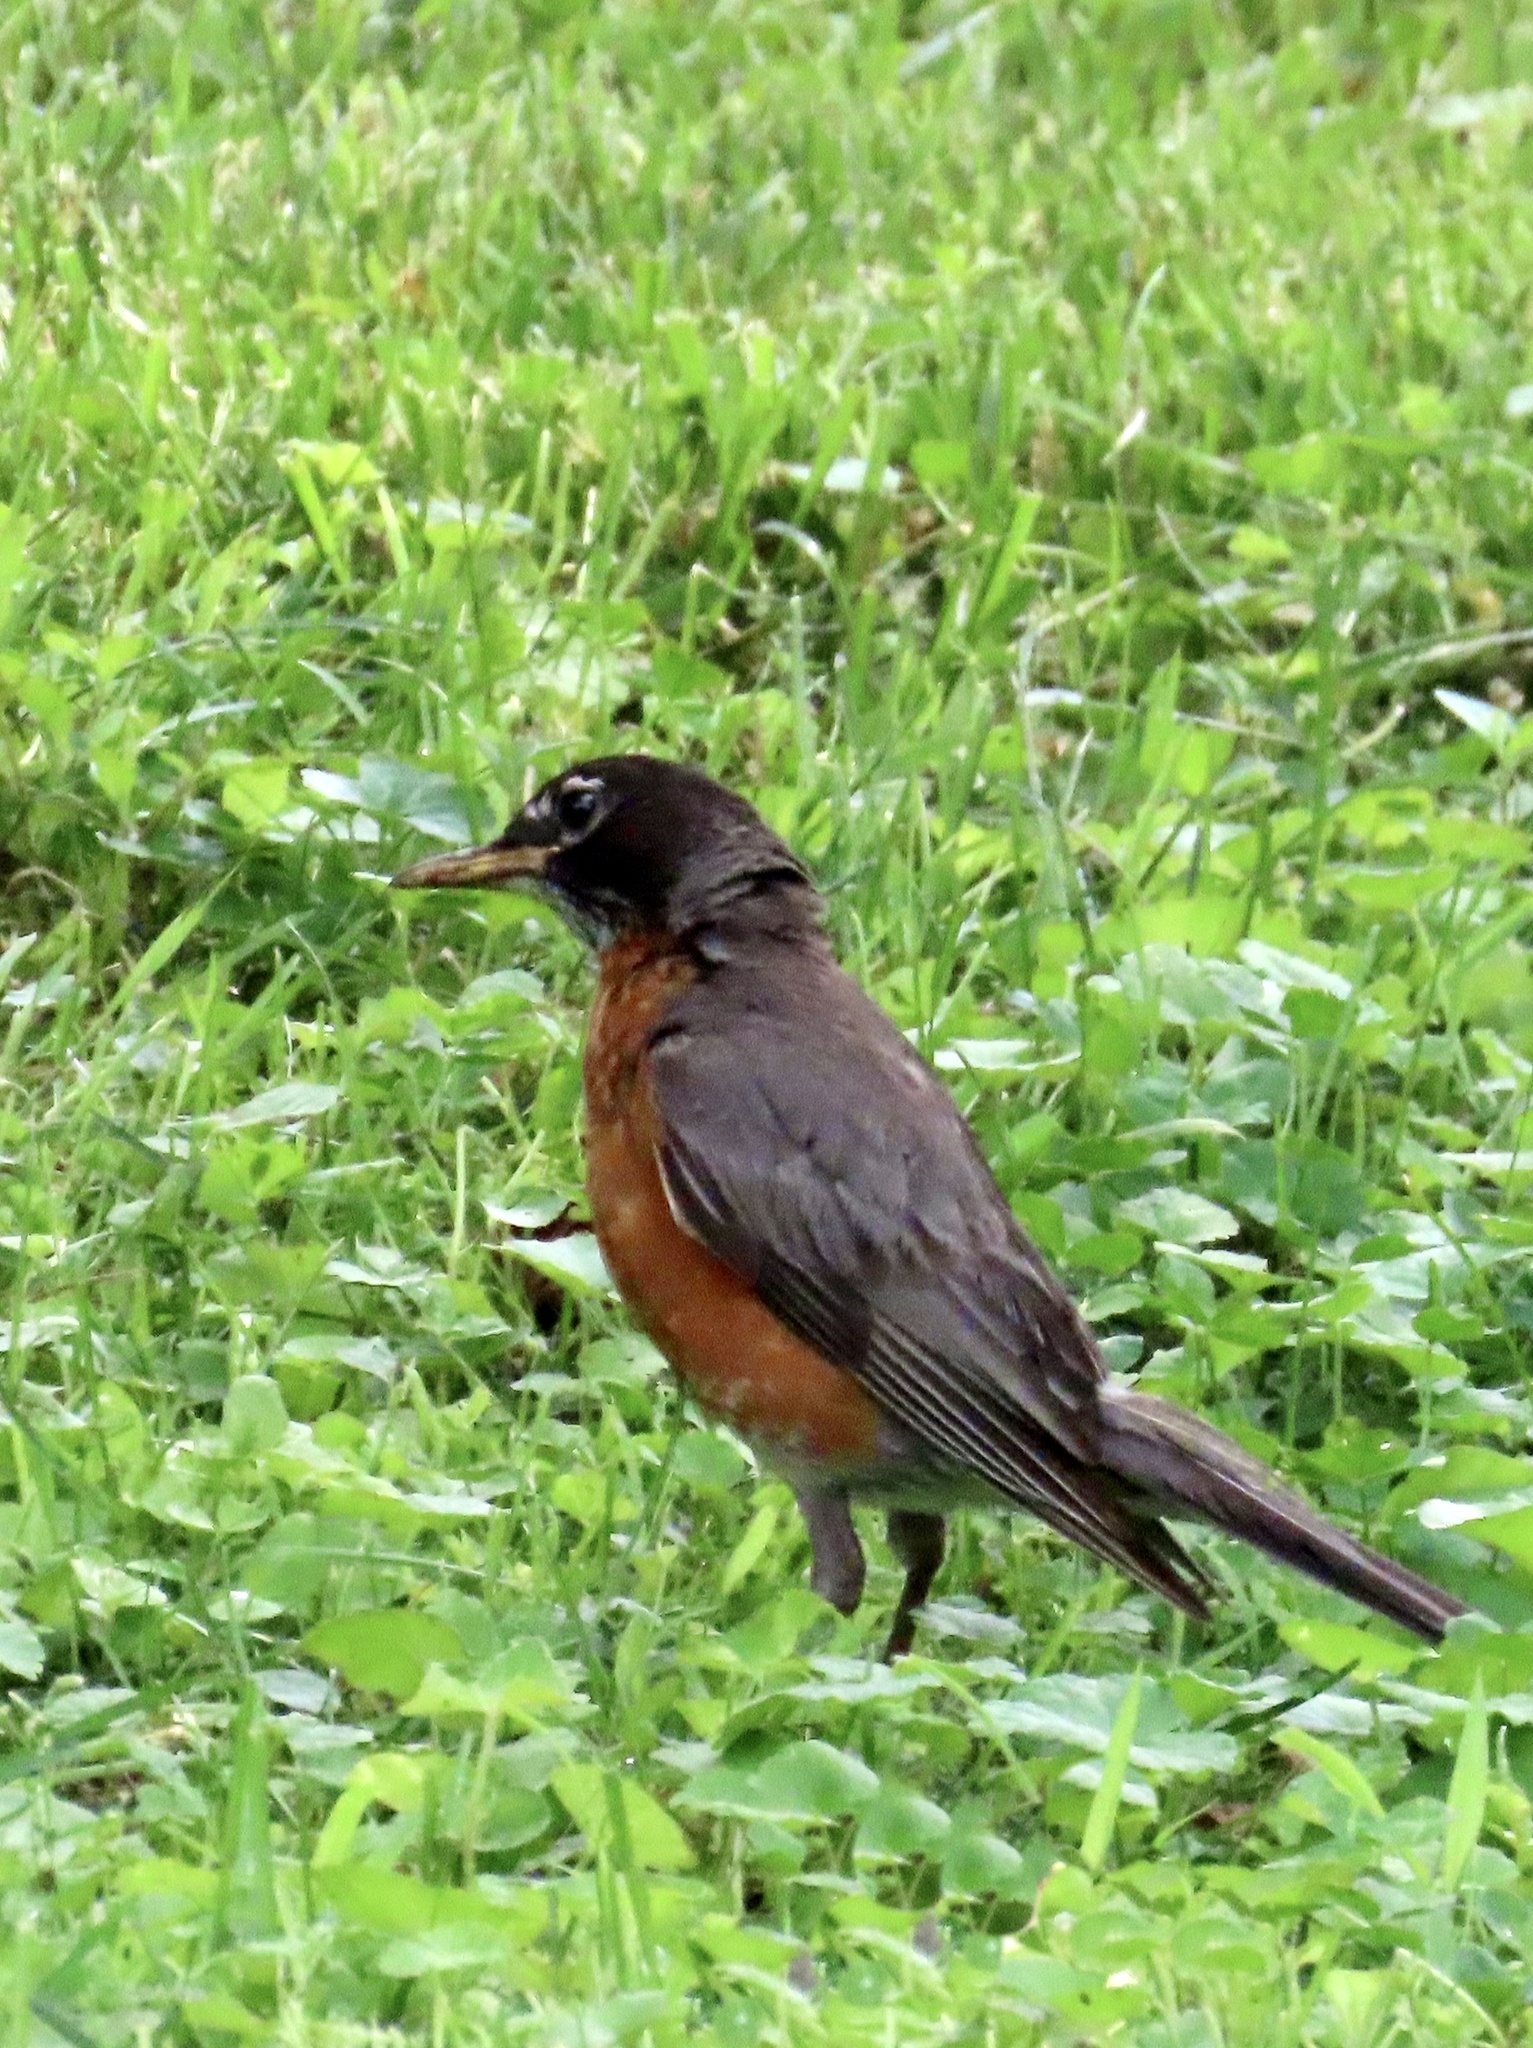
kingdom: Animalia
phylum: Chordata
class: Aves
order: Passeriformes
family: Turdidae
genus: Turdus
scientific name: Turdus migratorius
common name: American robin
